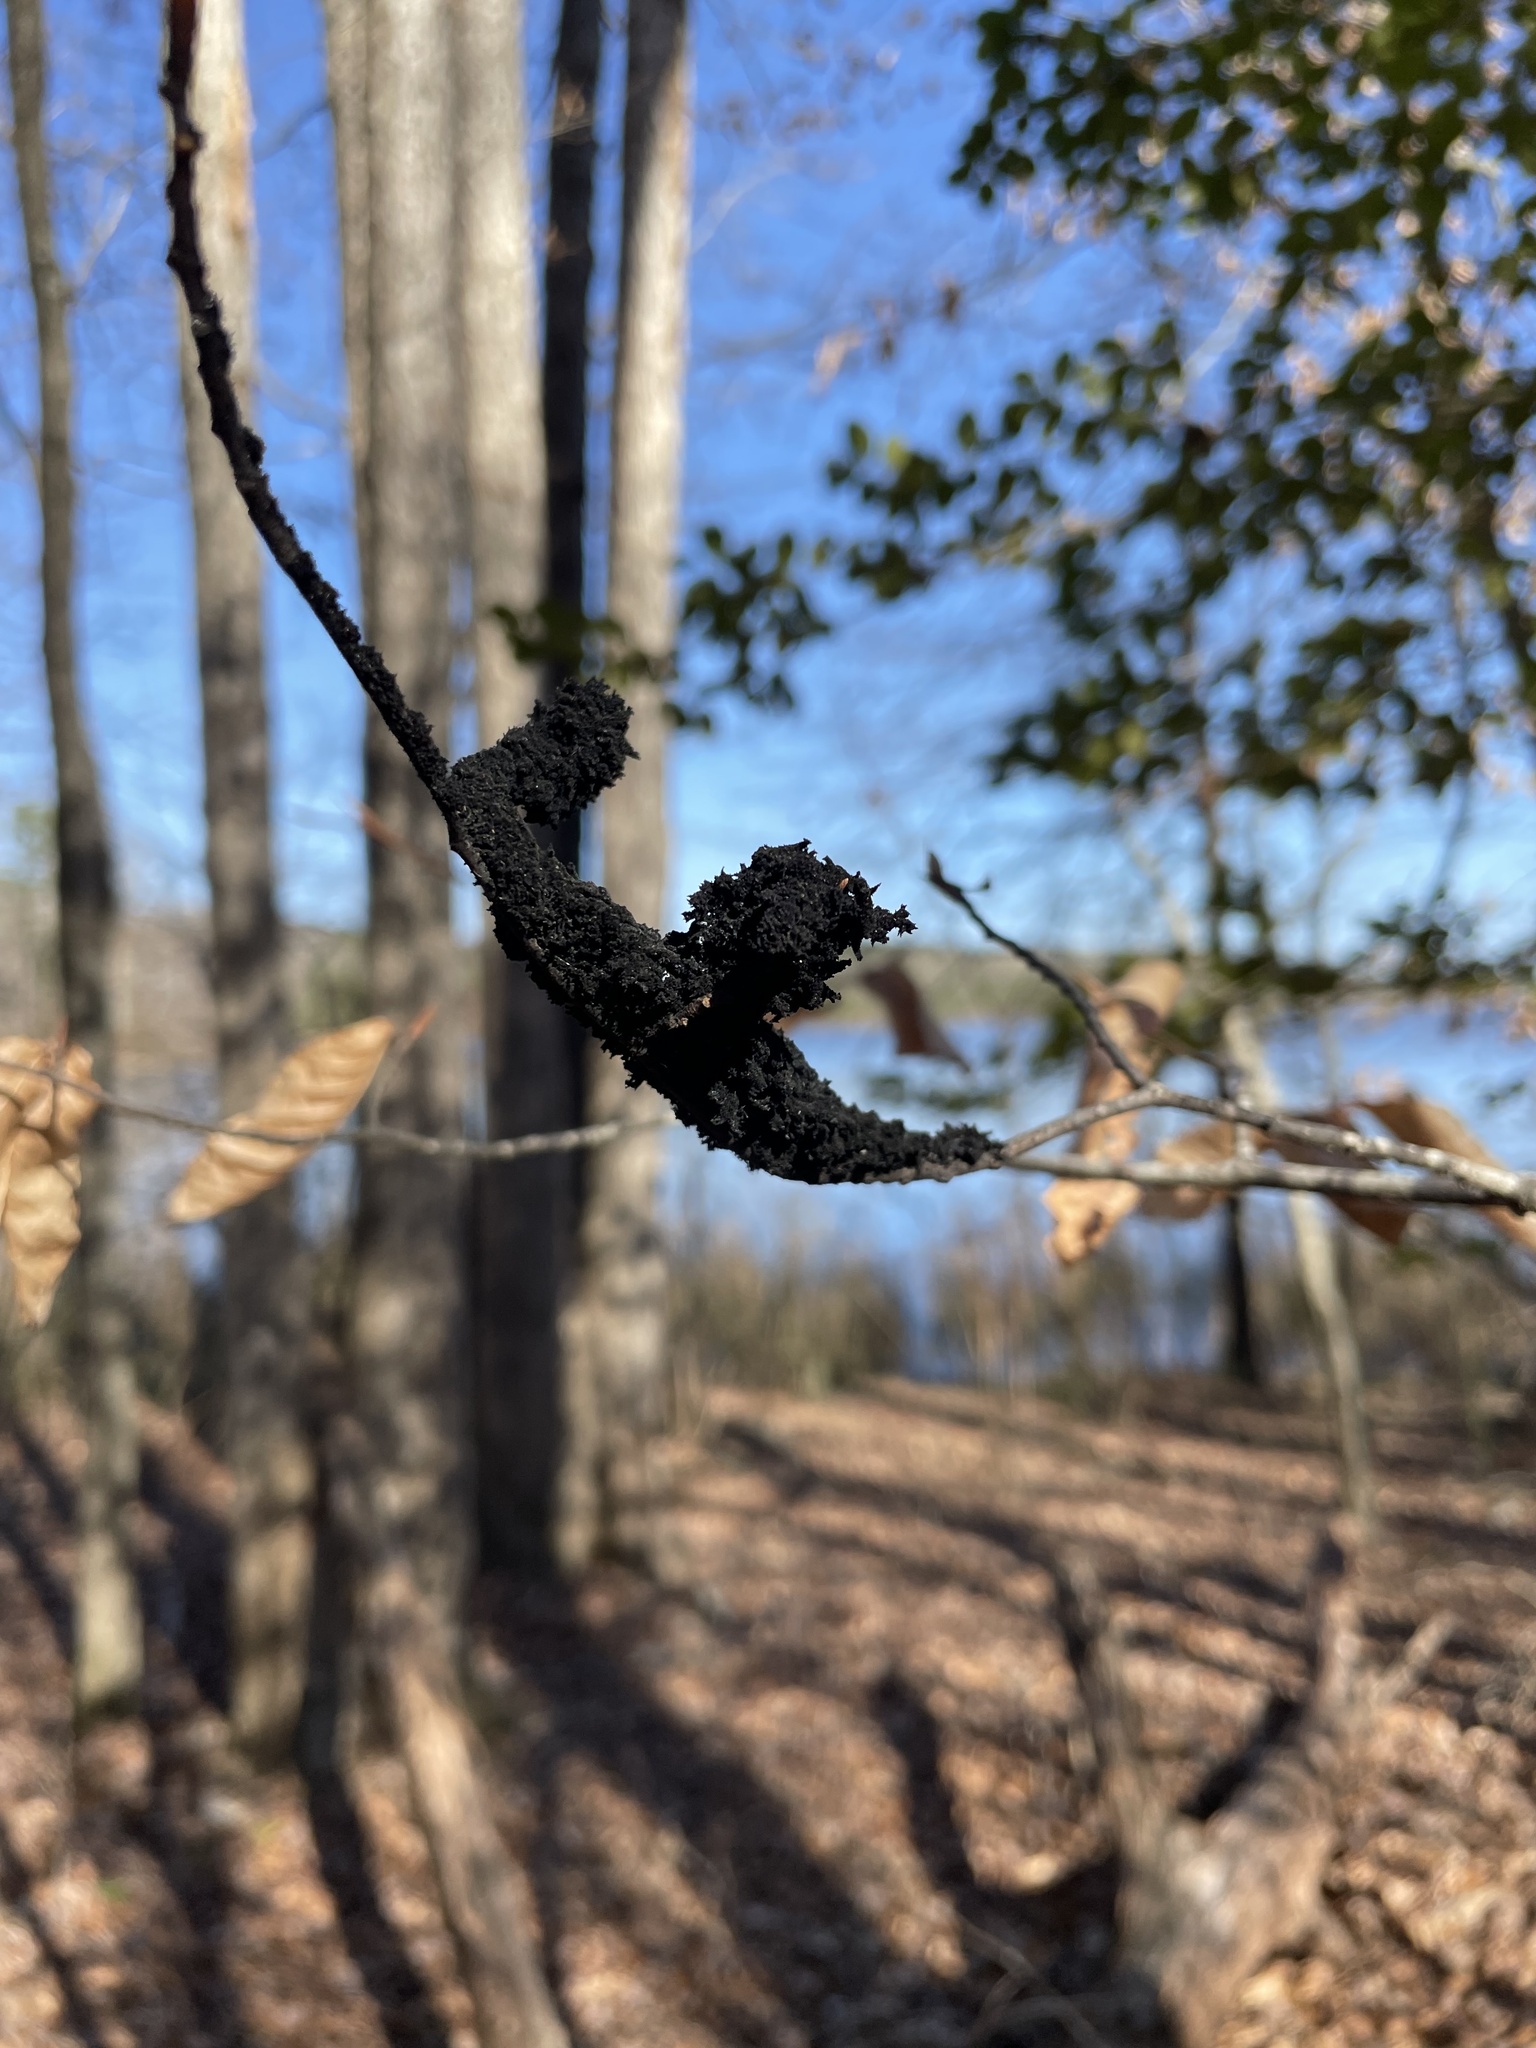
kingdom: Fungi
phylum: Ascomycota
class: Dothideomycetes
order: Capnodiales
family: Capnodiaceae
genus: Scorias
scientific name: Scorias spongiosa
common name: Black sooty mold
